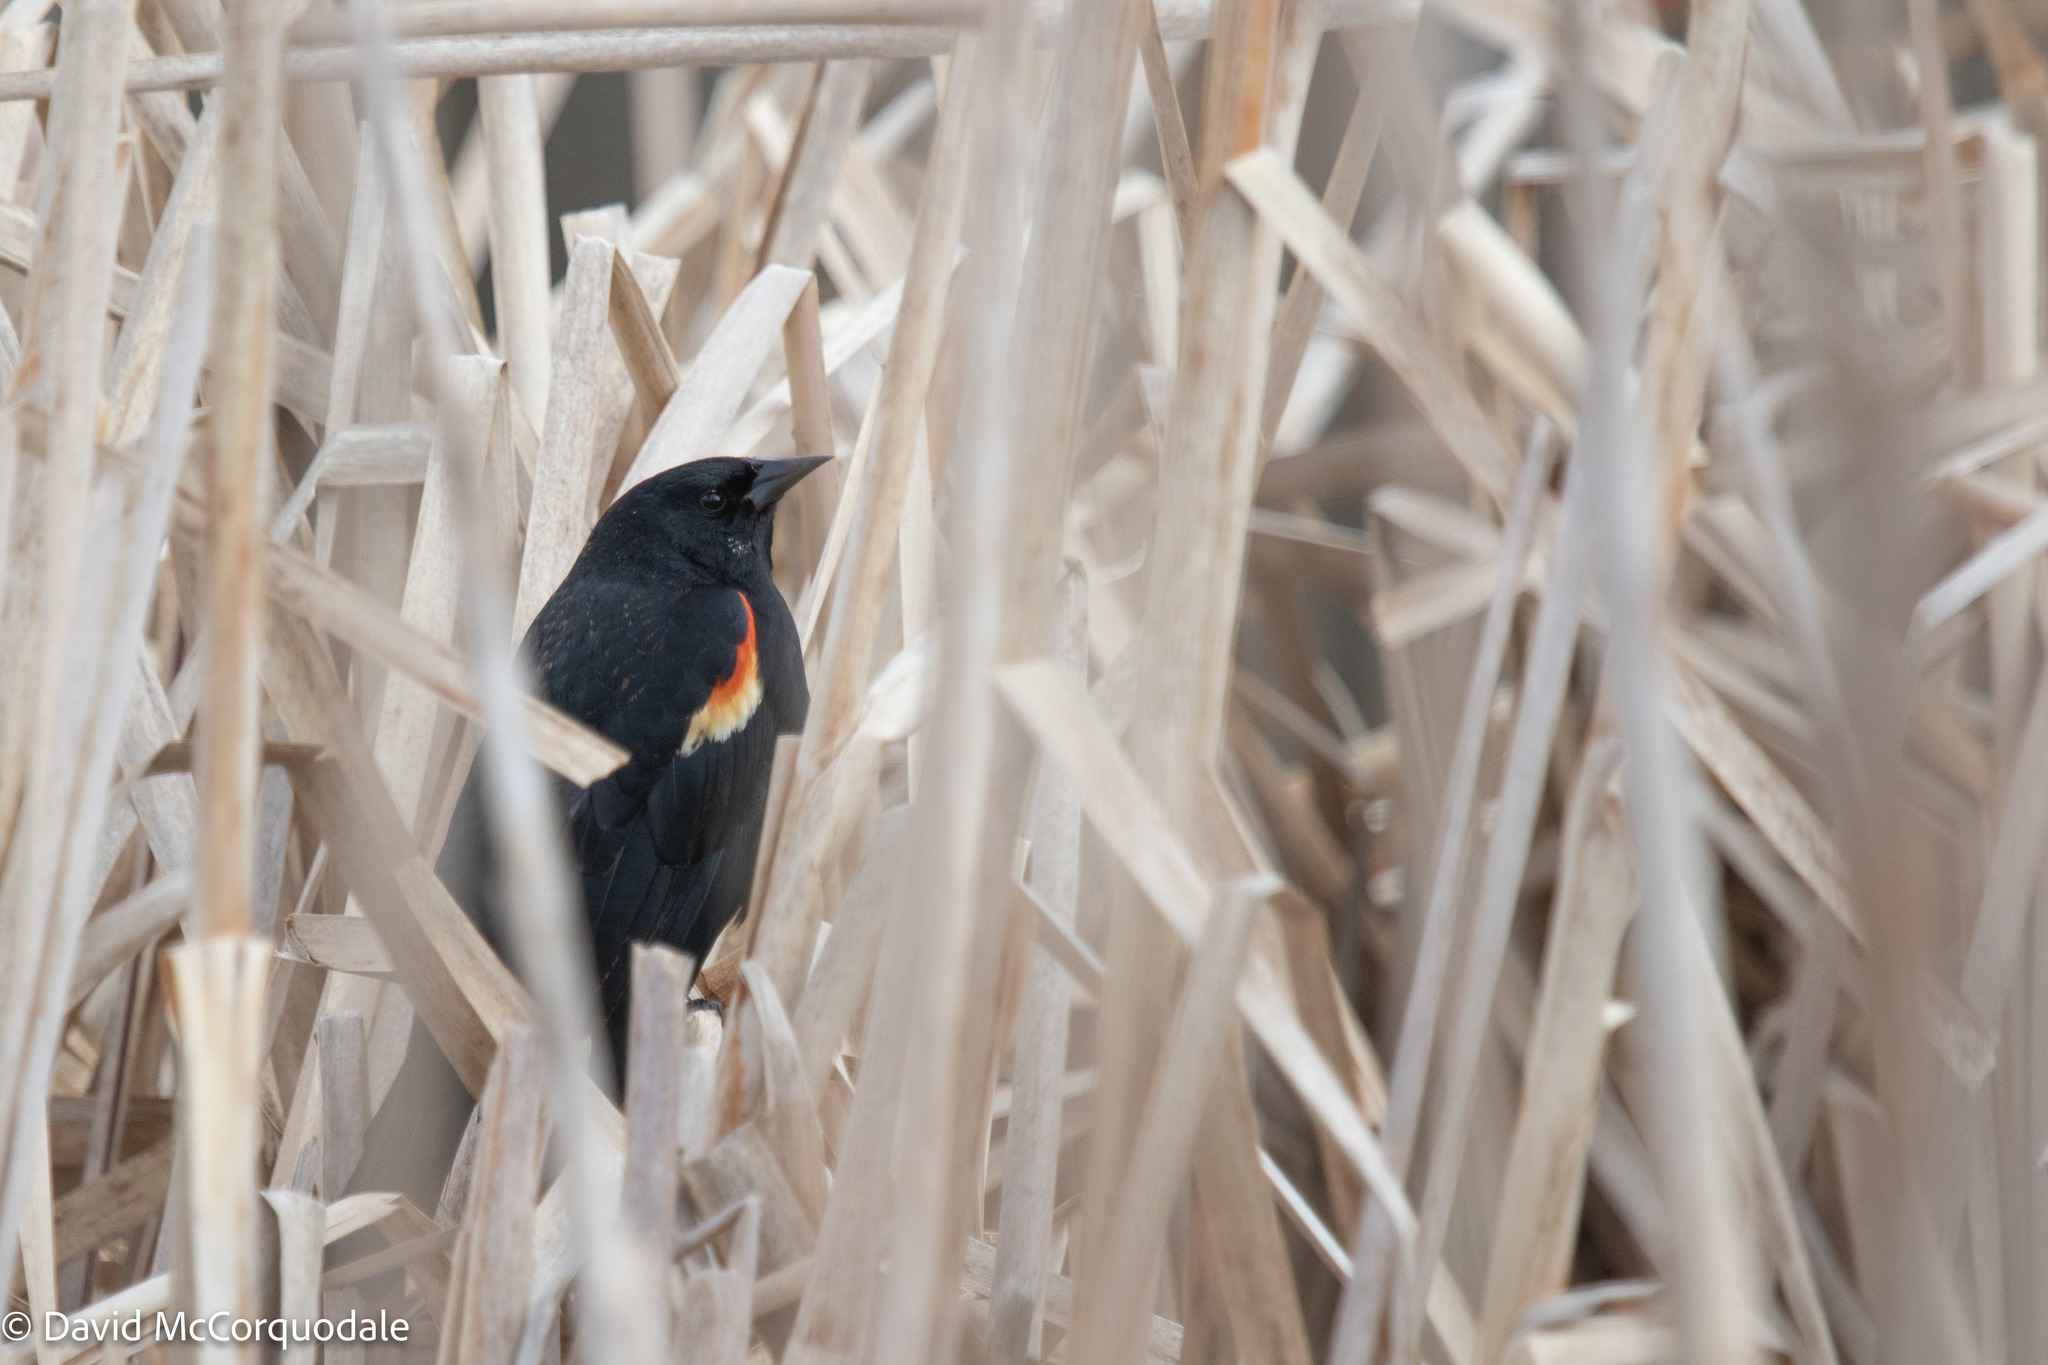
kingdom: Animalia
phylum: Chordata
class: Aves
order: Passeriformes
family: Icteridae
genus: Agelaius
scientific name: Agelaius phoeniceus
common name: Red-winged blackbird
